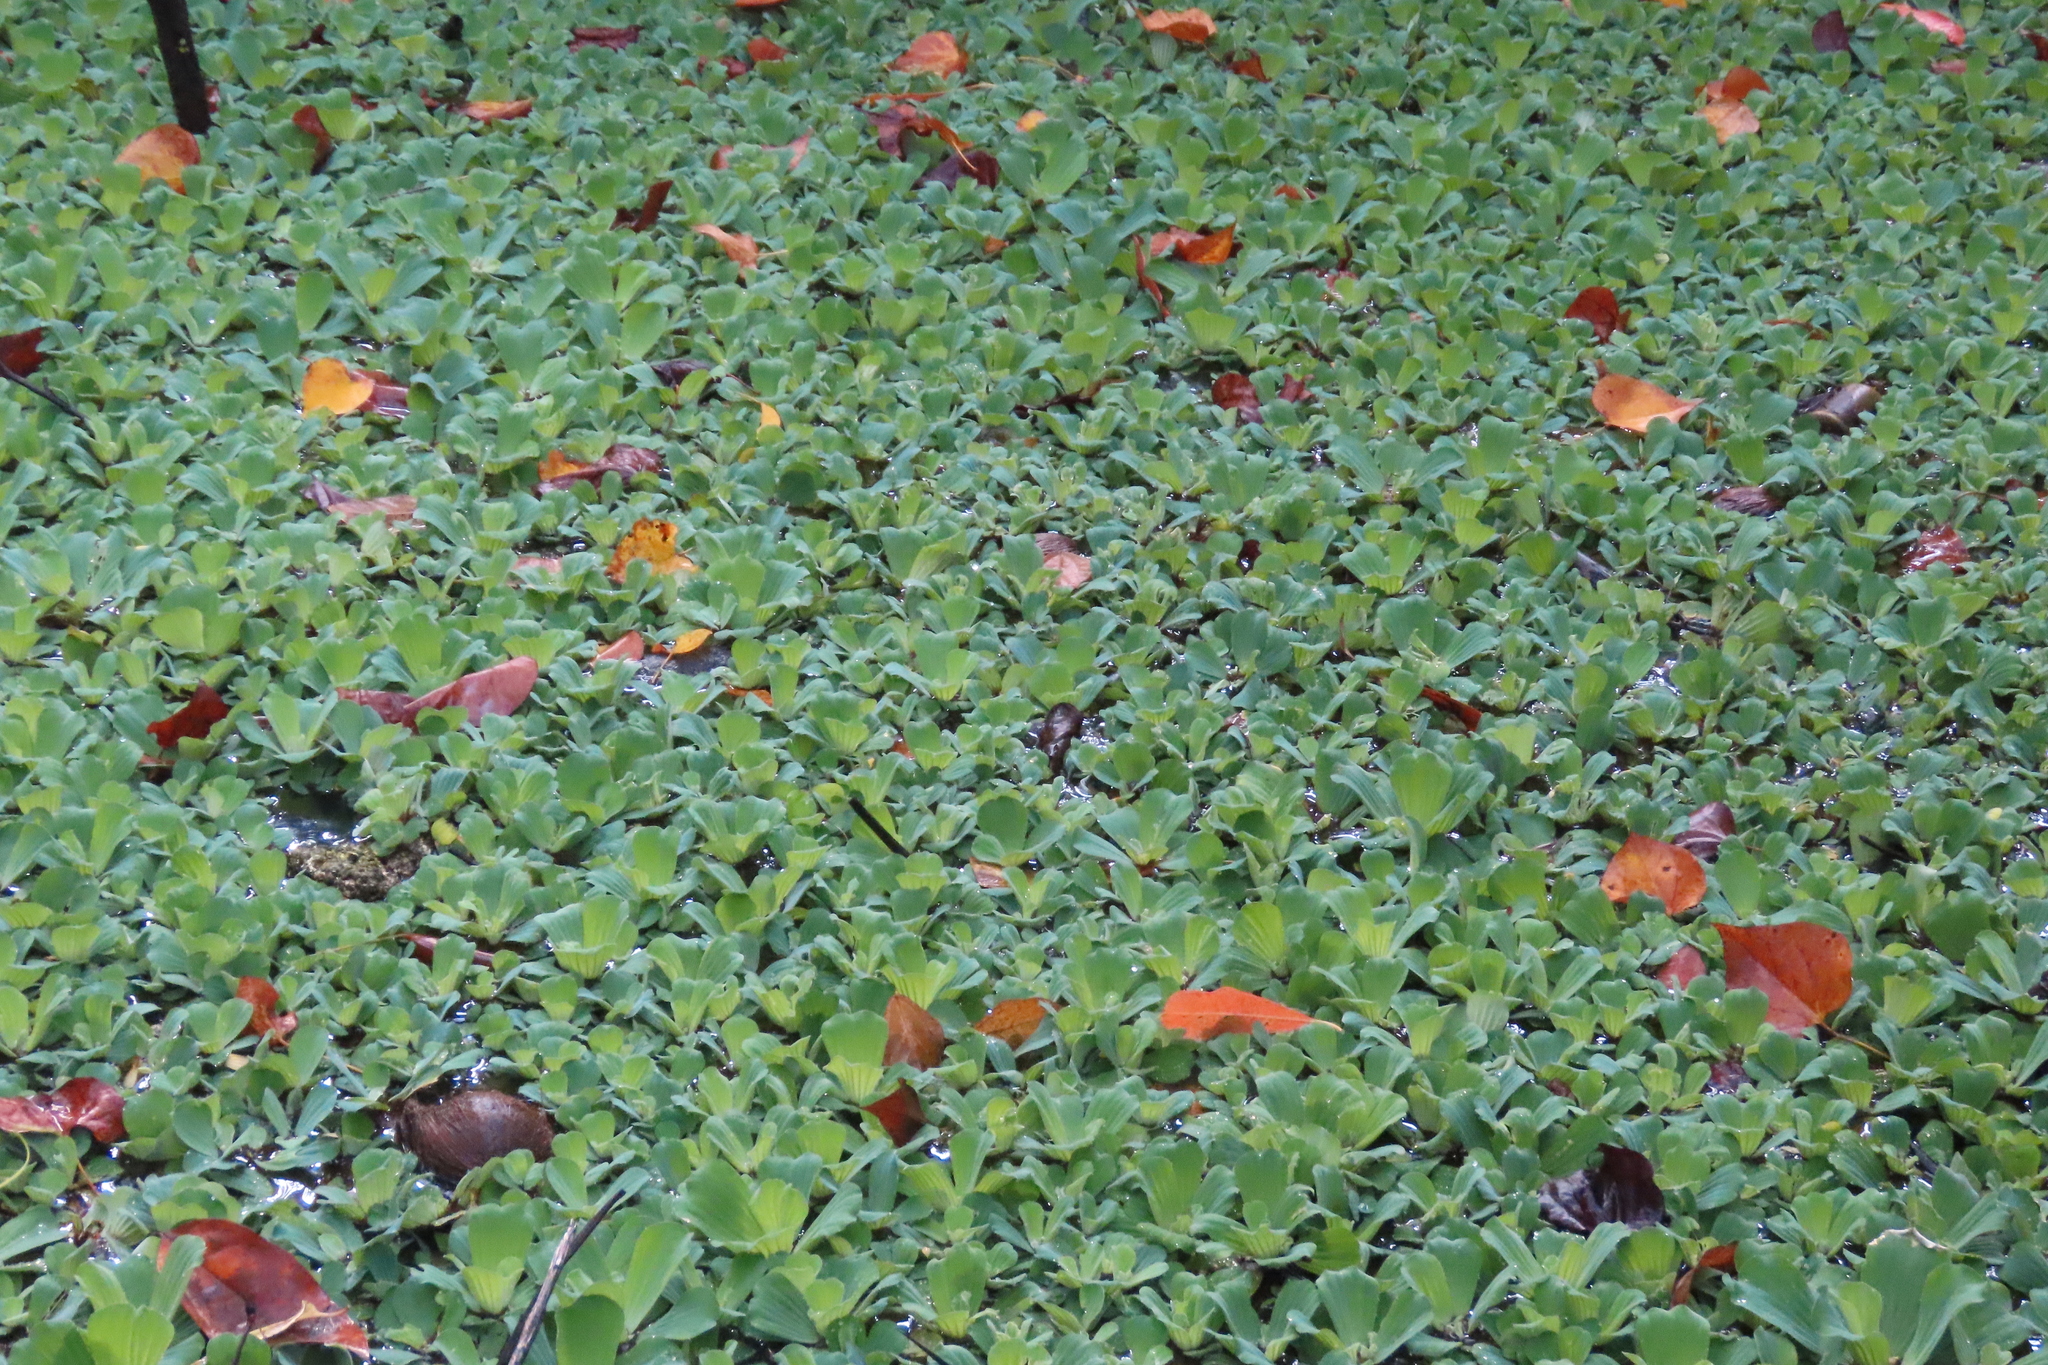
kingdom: Plantae
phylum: Tracheophyta
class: Liliopsida
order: Alismatales
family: Araceae
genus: Pistia
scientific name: Pistia stratiotes
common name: Water lettuce
